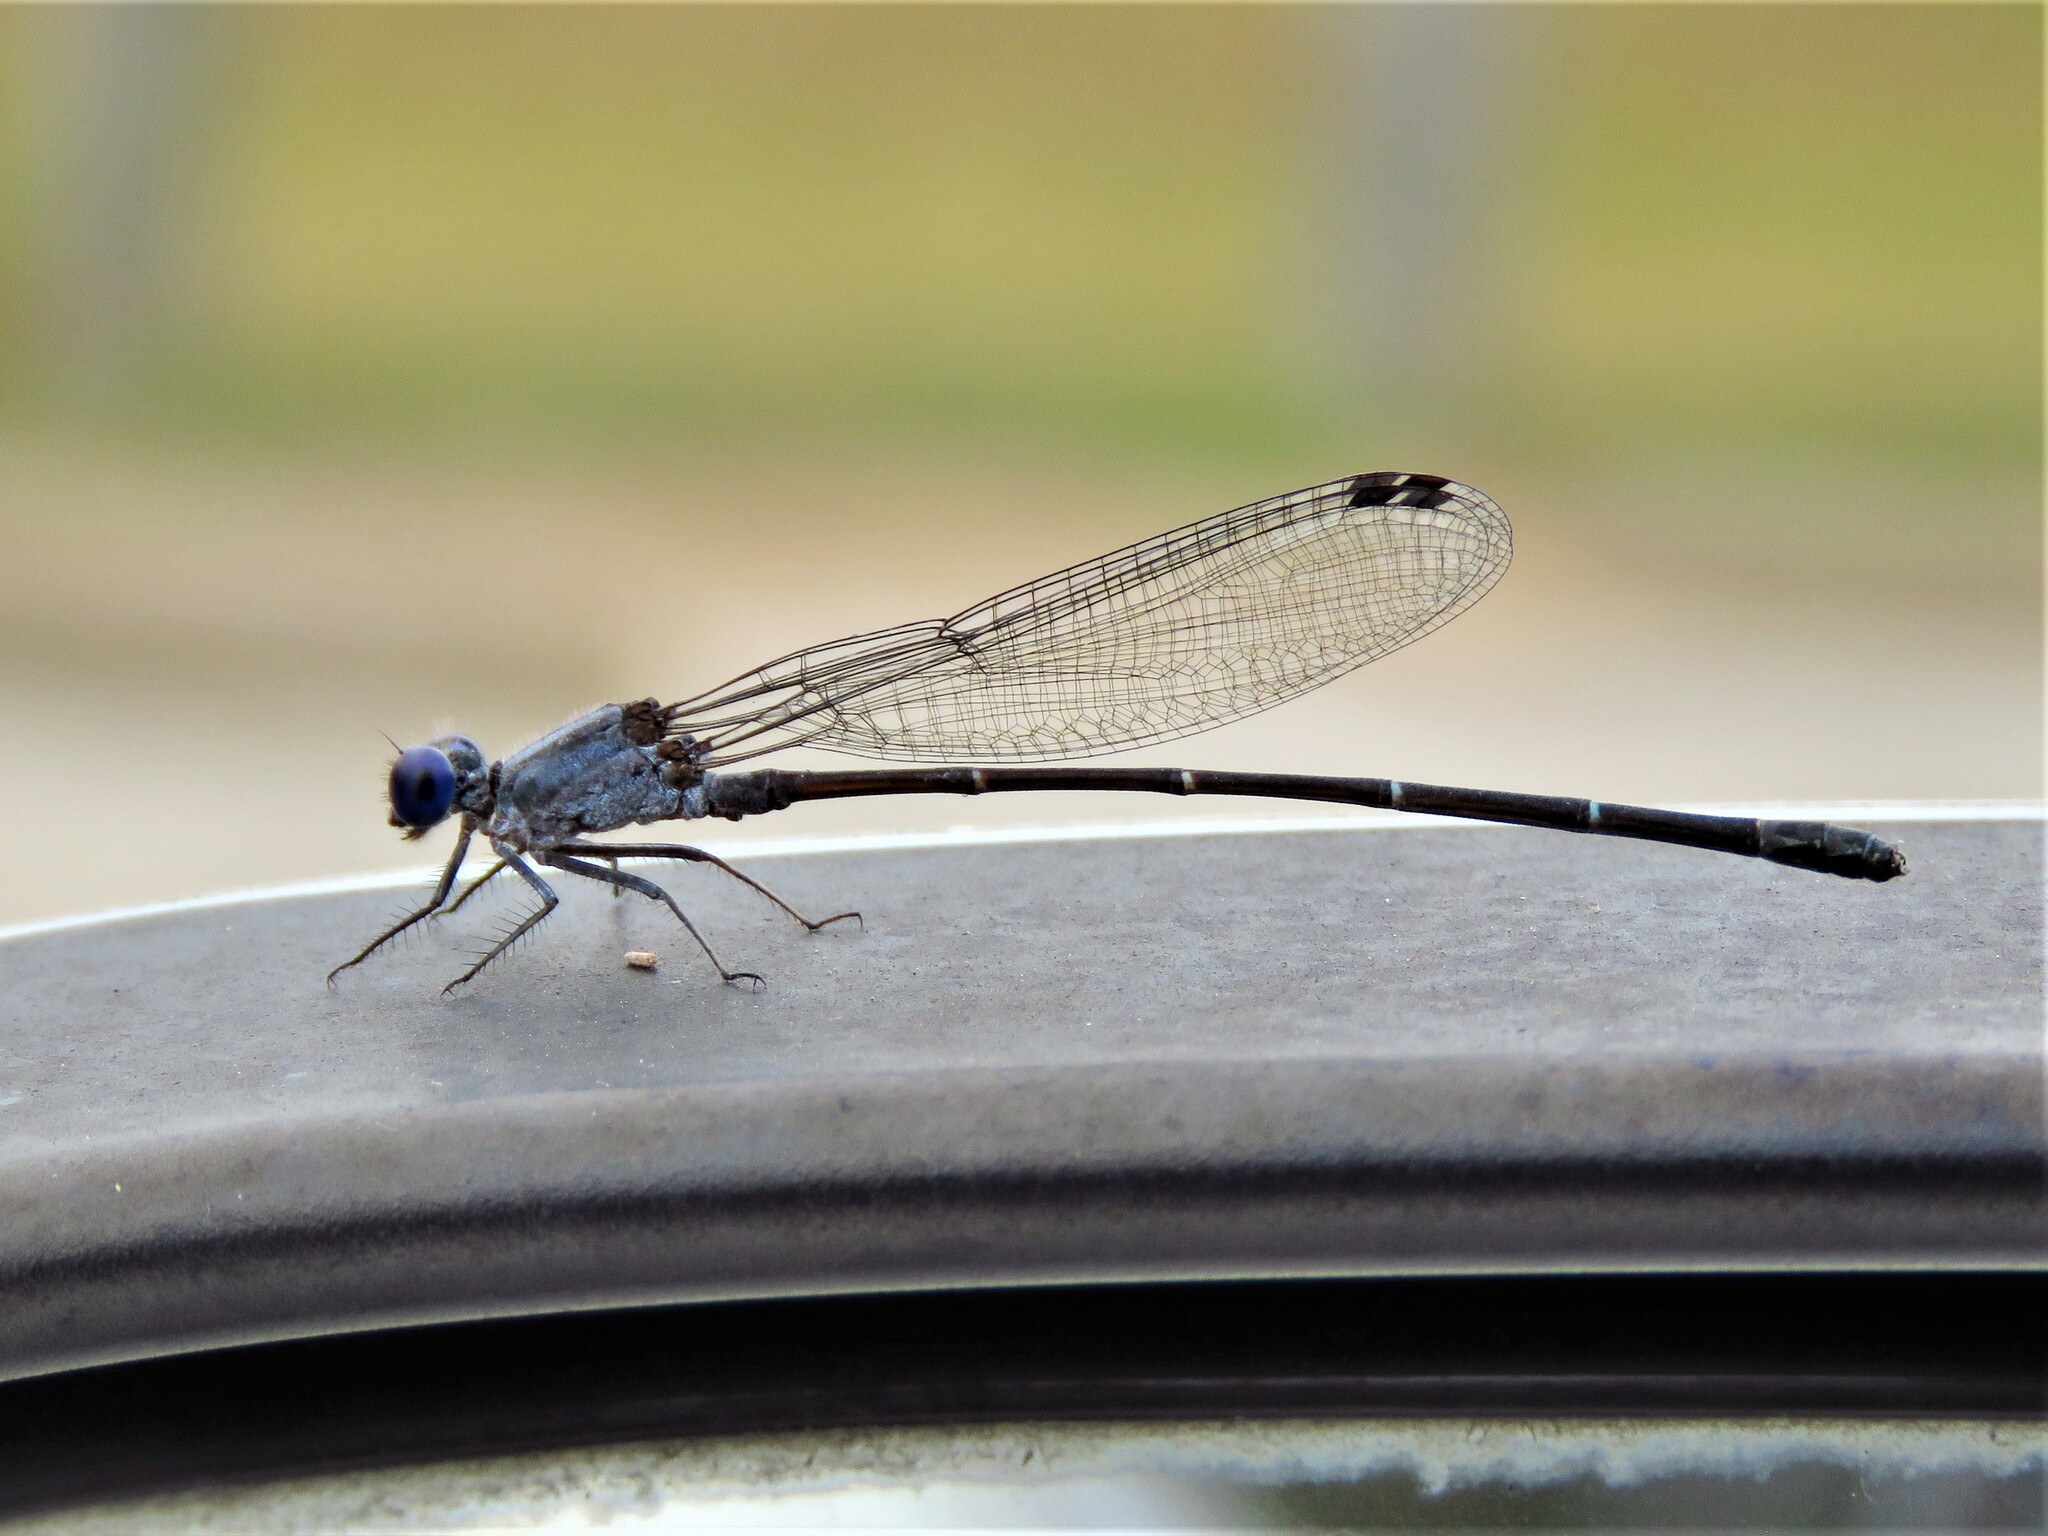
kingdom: Animalia
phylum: Arthropoda
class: Insecta
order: Odonata
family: Coenagrionidae
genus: Argia
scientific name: Argia translata
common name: Dusky dancer
